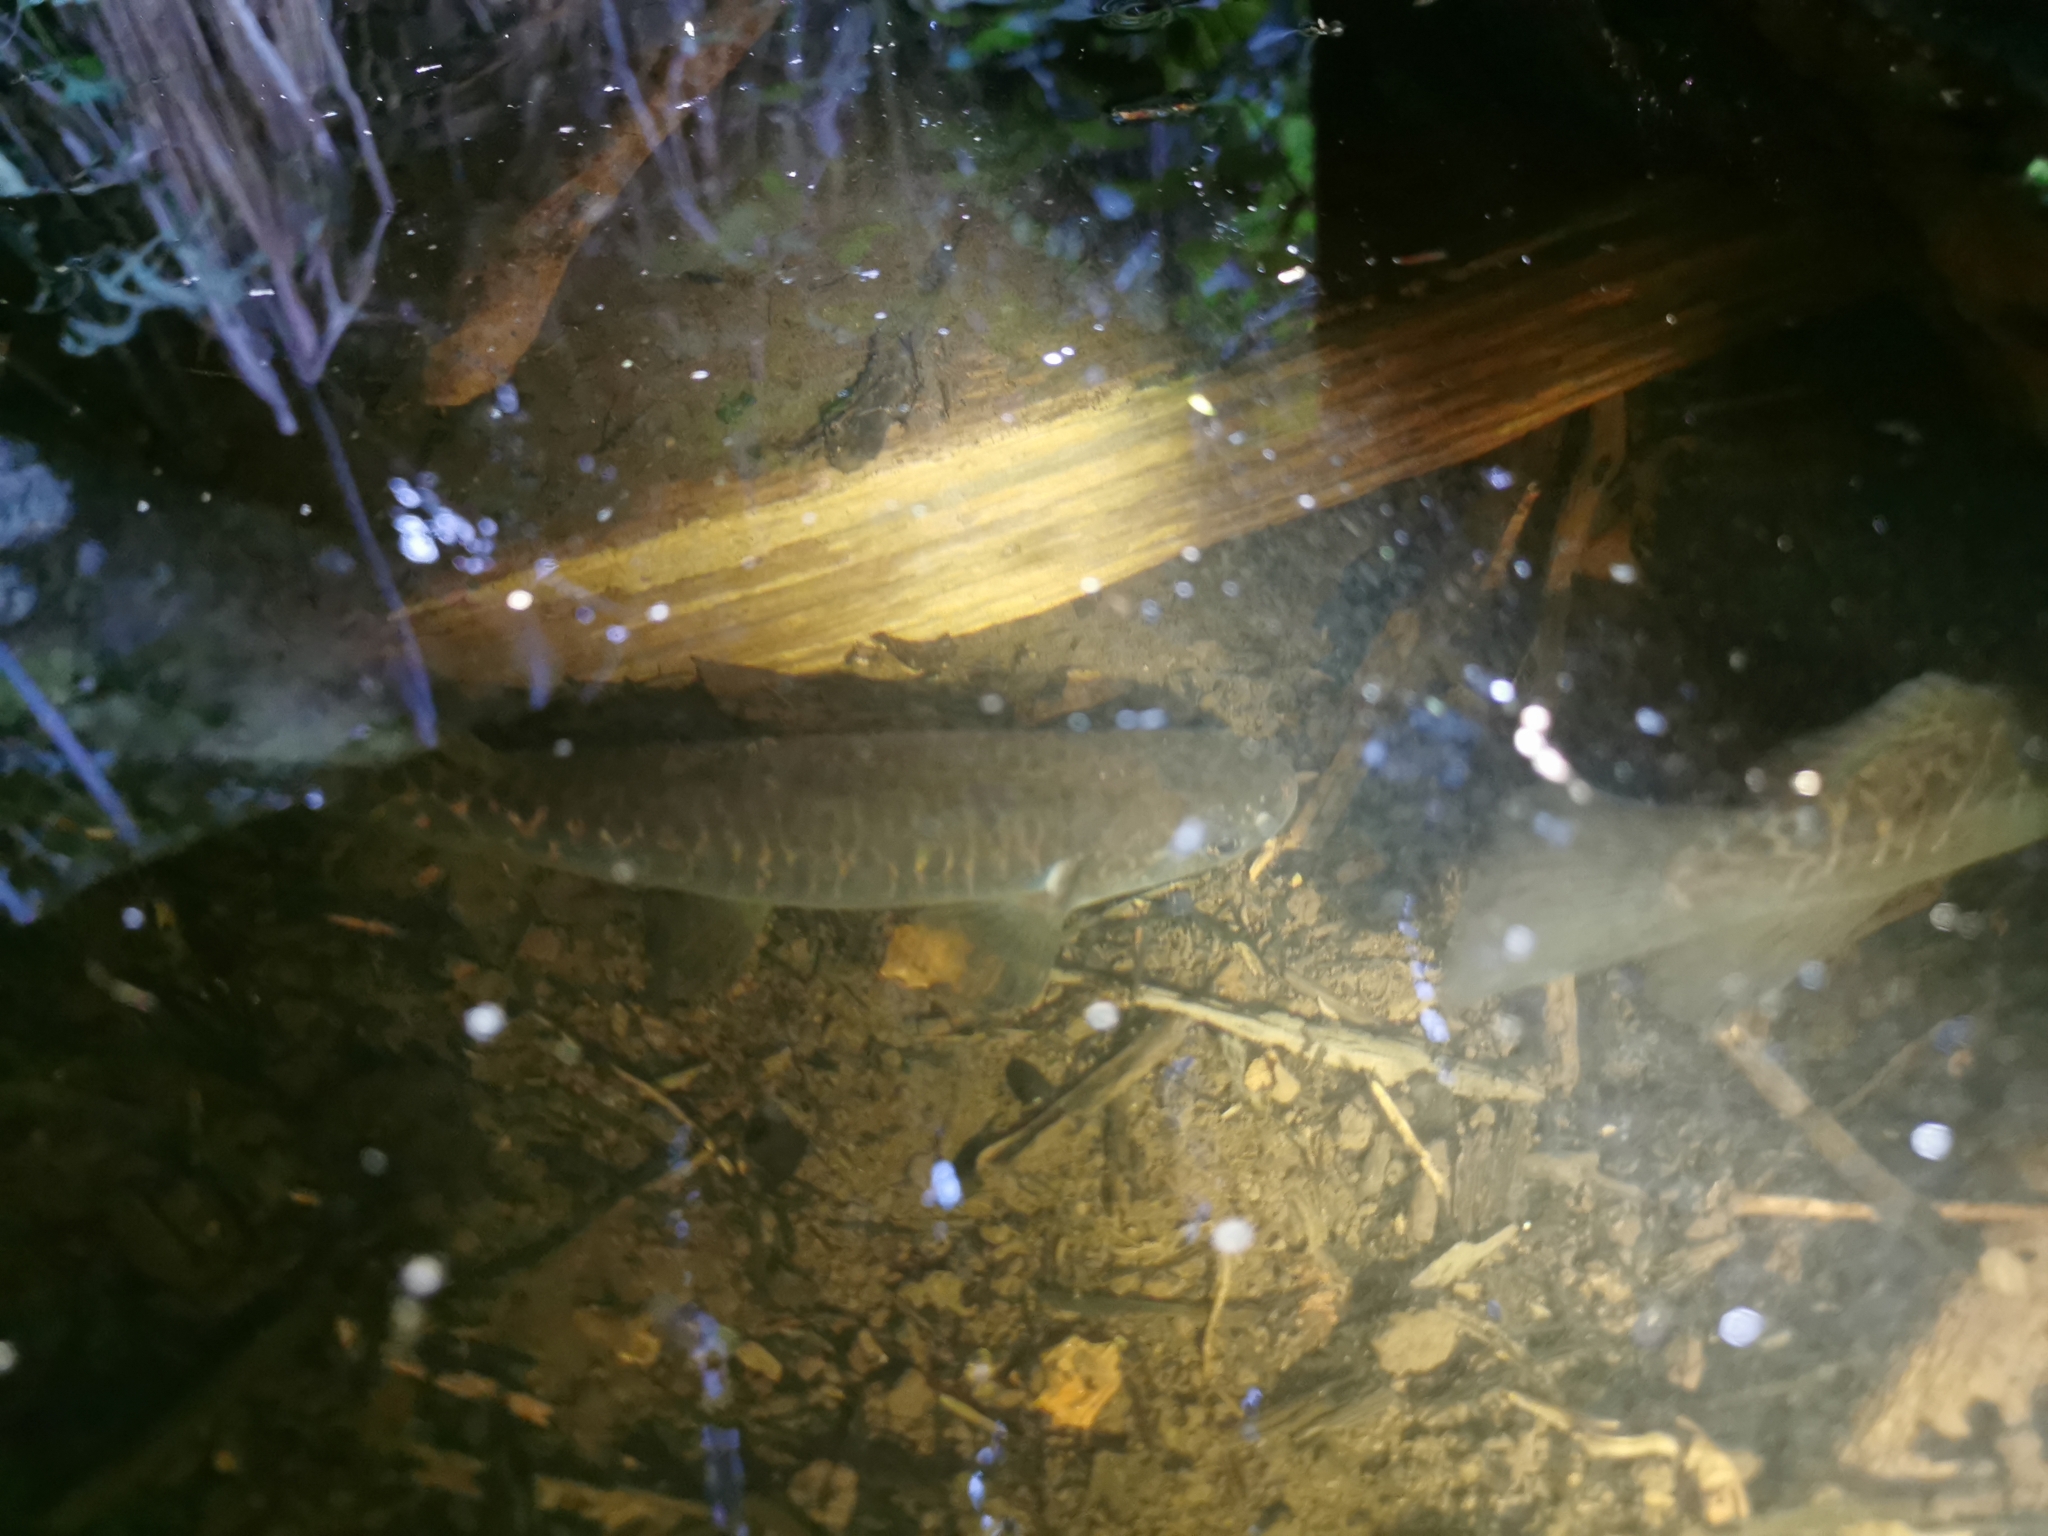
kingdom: Animalia
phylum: Chordata
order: Osmeriformes
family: Galaxiidae
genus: Galaxias
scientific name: Galaxias fasciatus
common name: Banded kokopu
